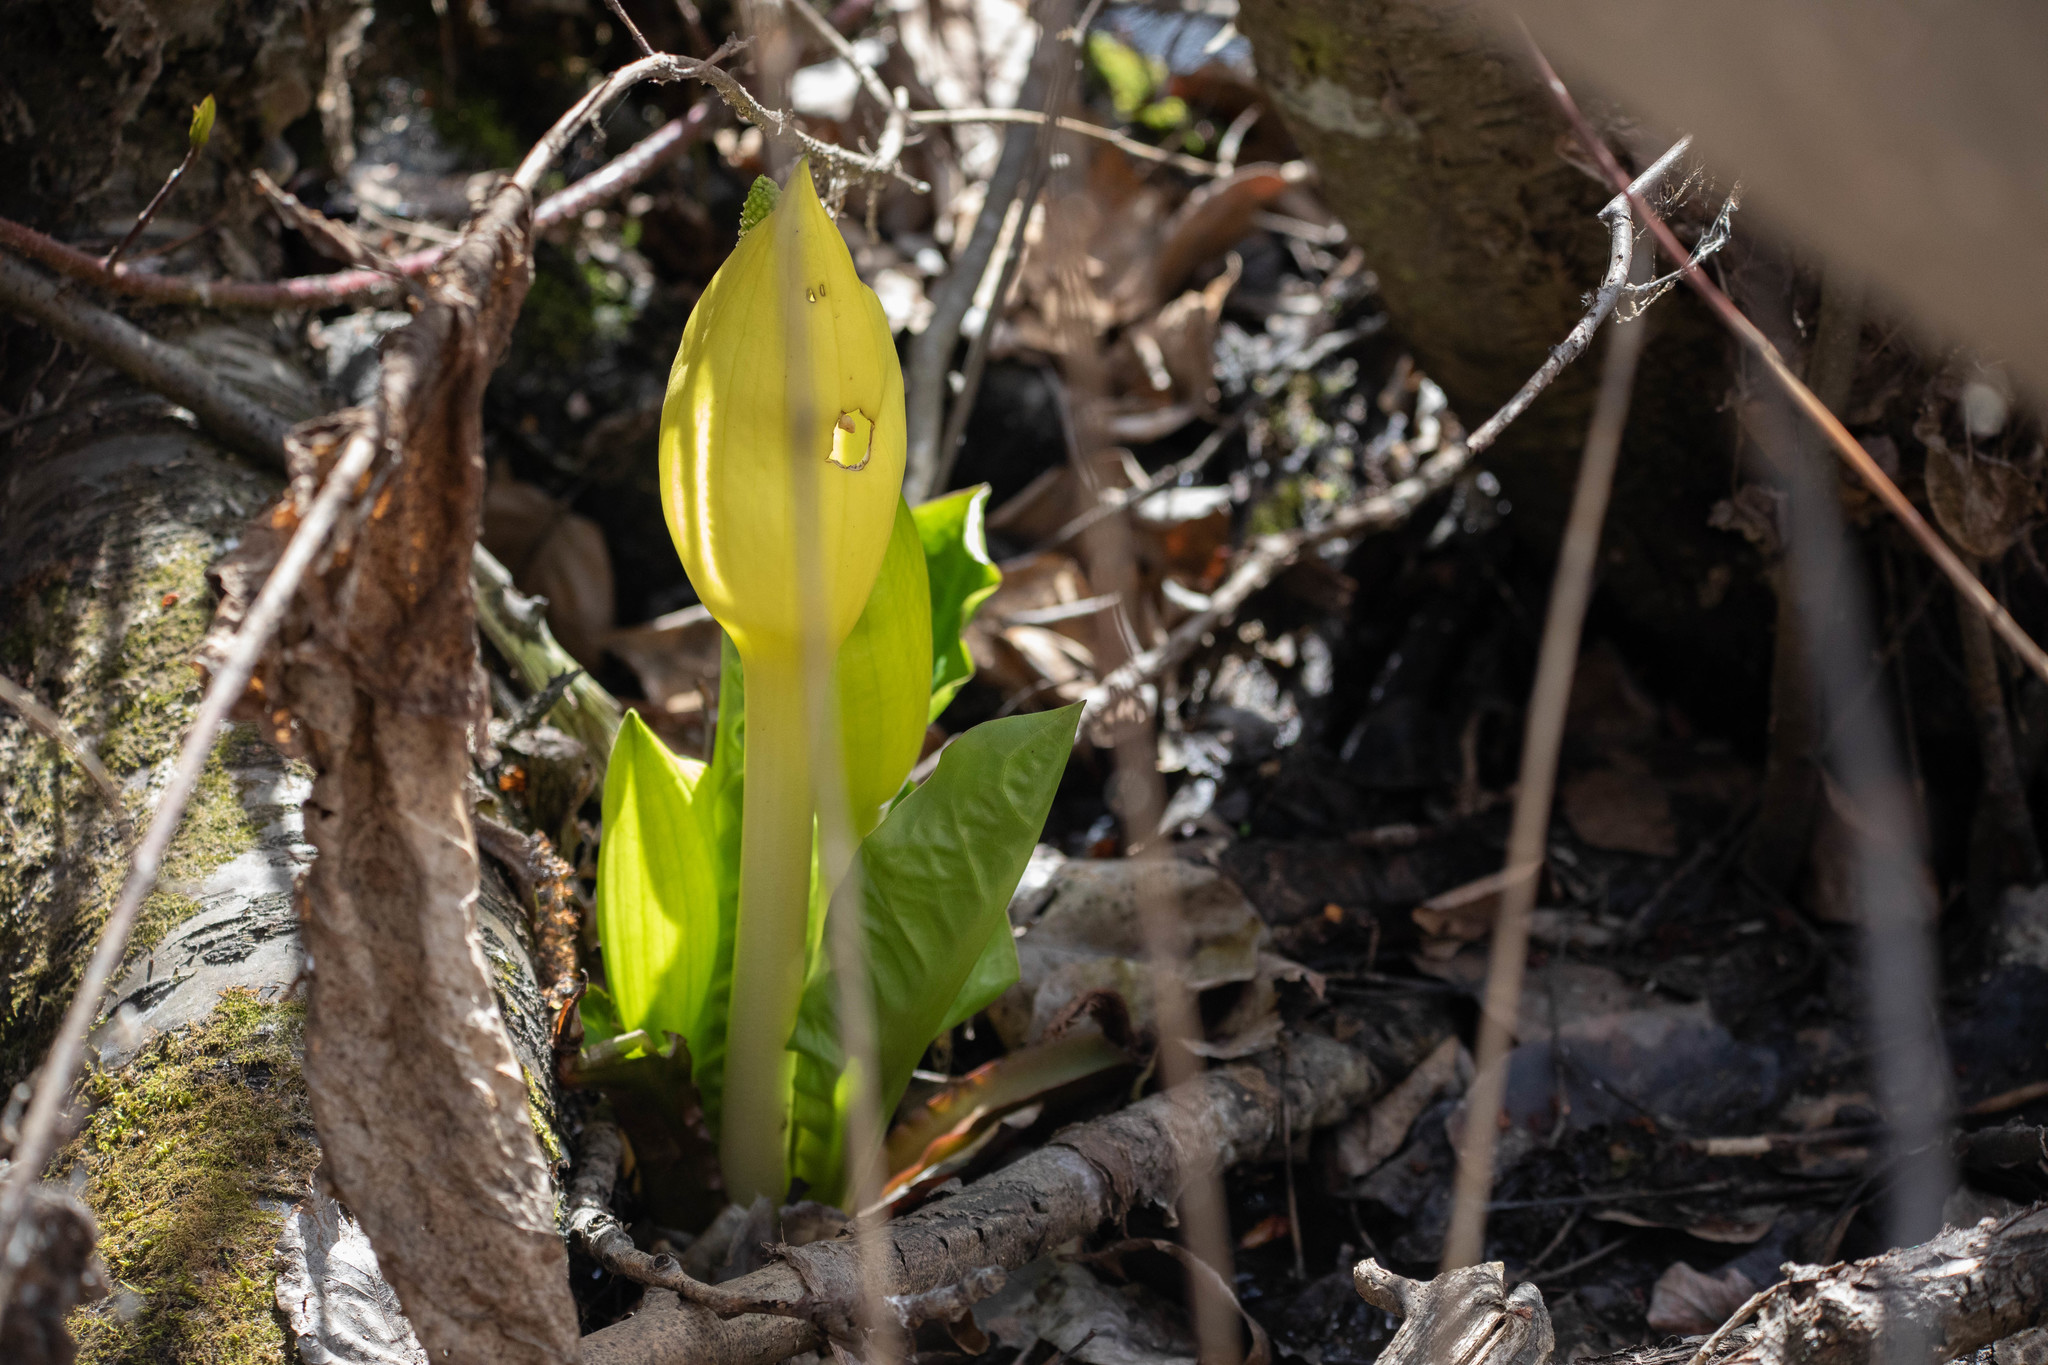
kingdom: Plantae
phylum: Tracheophyta
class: Liliopsida
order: Alismatales
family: Araceae
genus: Lysichiton
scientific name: Lysichiton americanus
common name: American skunk cabbage
